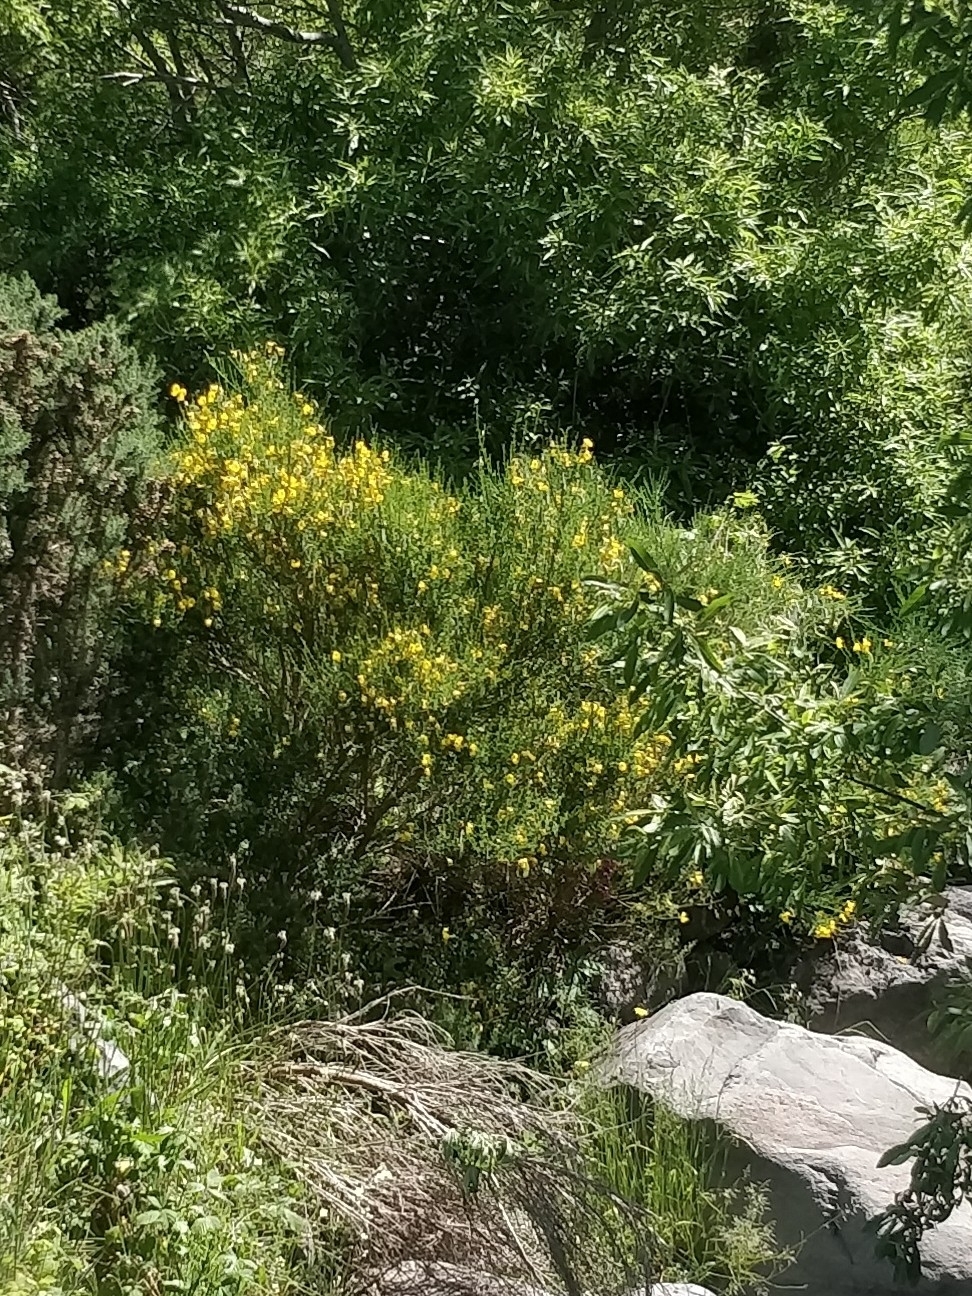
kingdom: Plantae
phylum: Tracheophyta
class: Magnoliopsida
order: Fabales
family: Fabaceae
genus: Cytisus
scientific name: Cytisus scoparius
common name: Scotch broom
